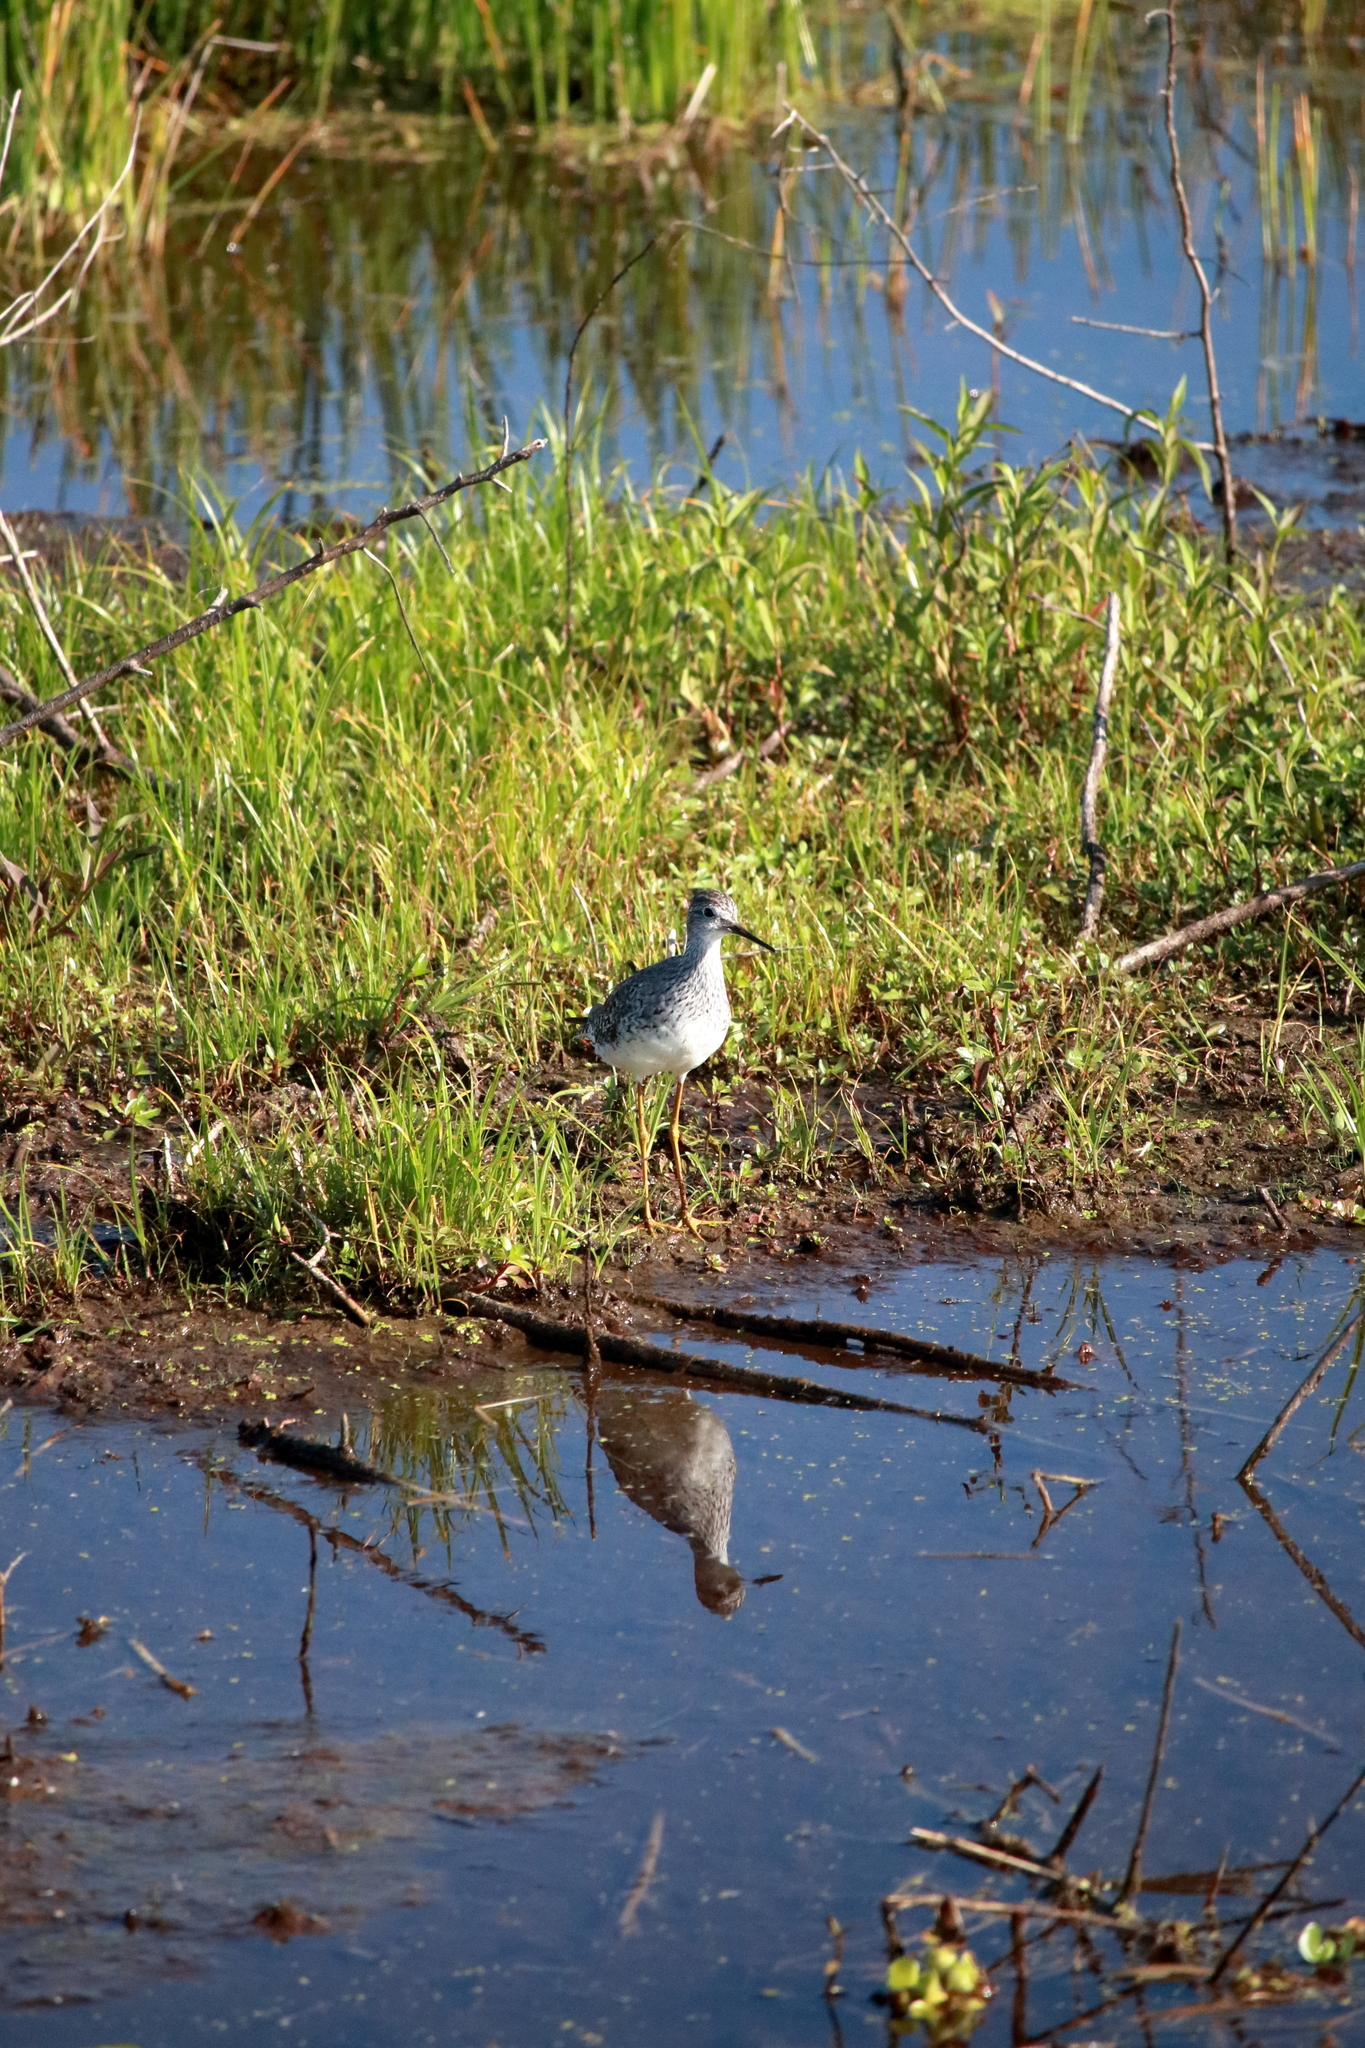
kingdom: Animalia
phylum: Chordata
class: Aves
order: Charadriiformes
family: Scolopacidae
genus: Tringa
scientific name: Tringa flavipes
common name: Lesser yellowlegs
